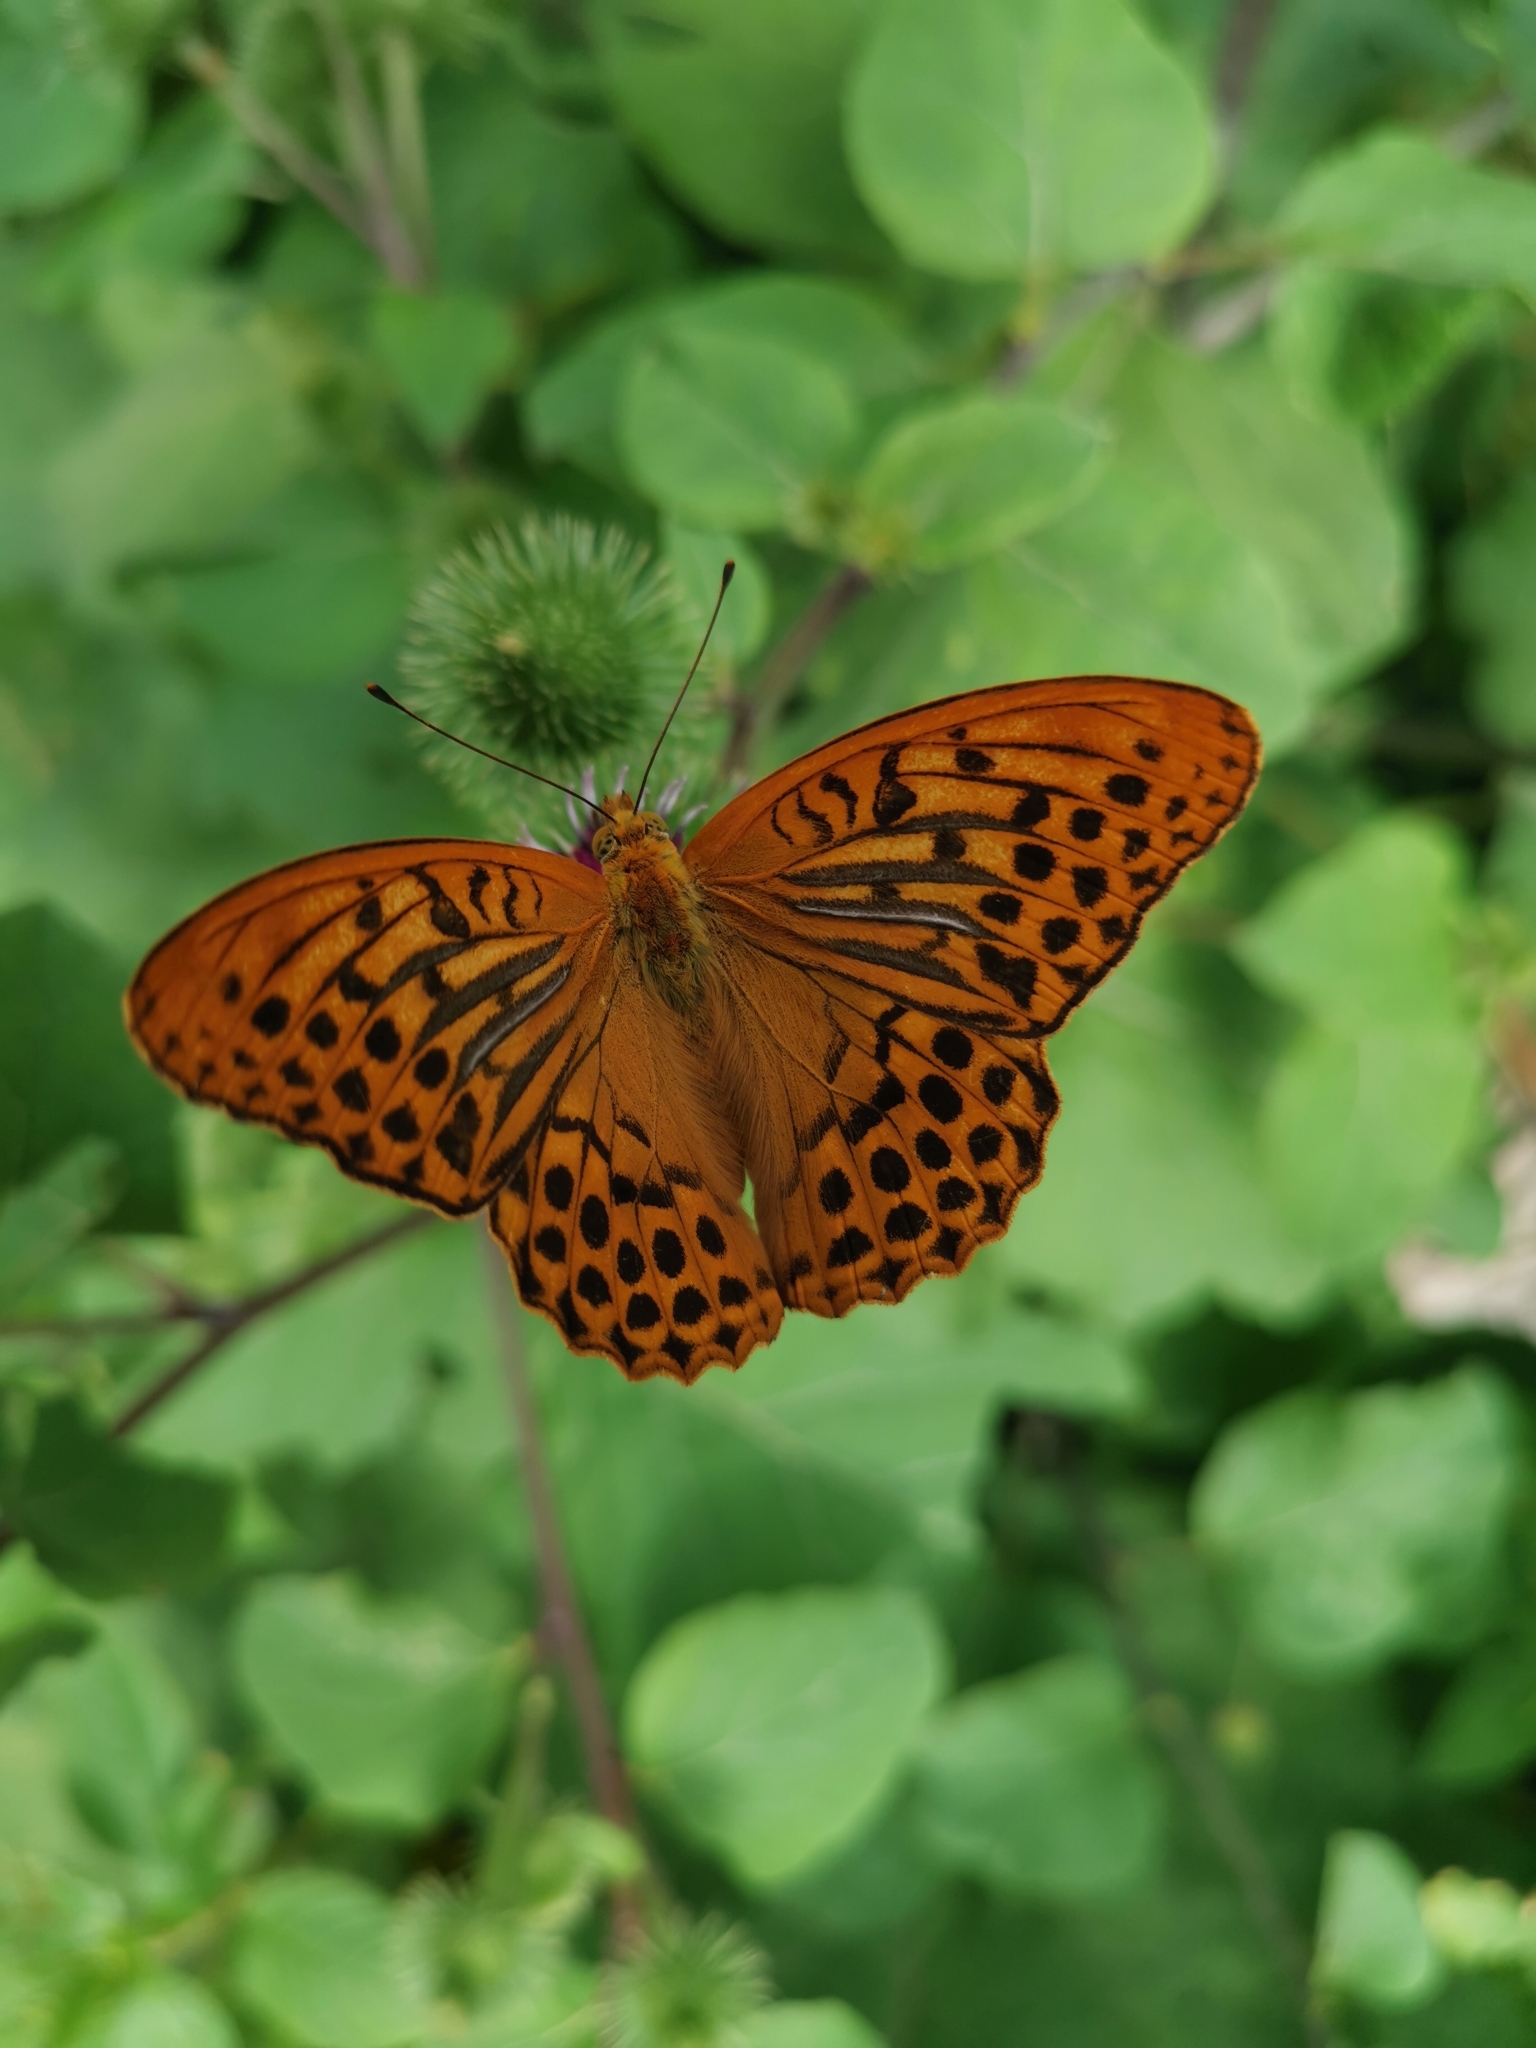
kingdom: Animalia
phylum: Arthropoda
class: Insecta
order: Lepidoptera
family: Nymphalidae
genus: Argynnis
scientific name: Argynnis paphia
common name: Silver-washed fritillary
